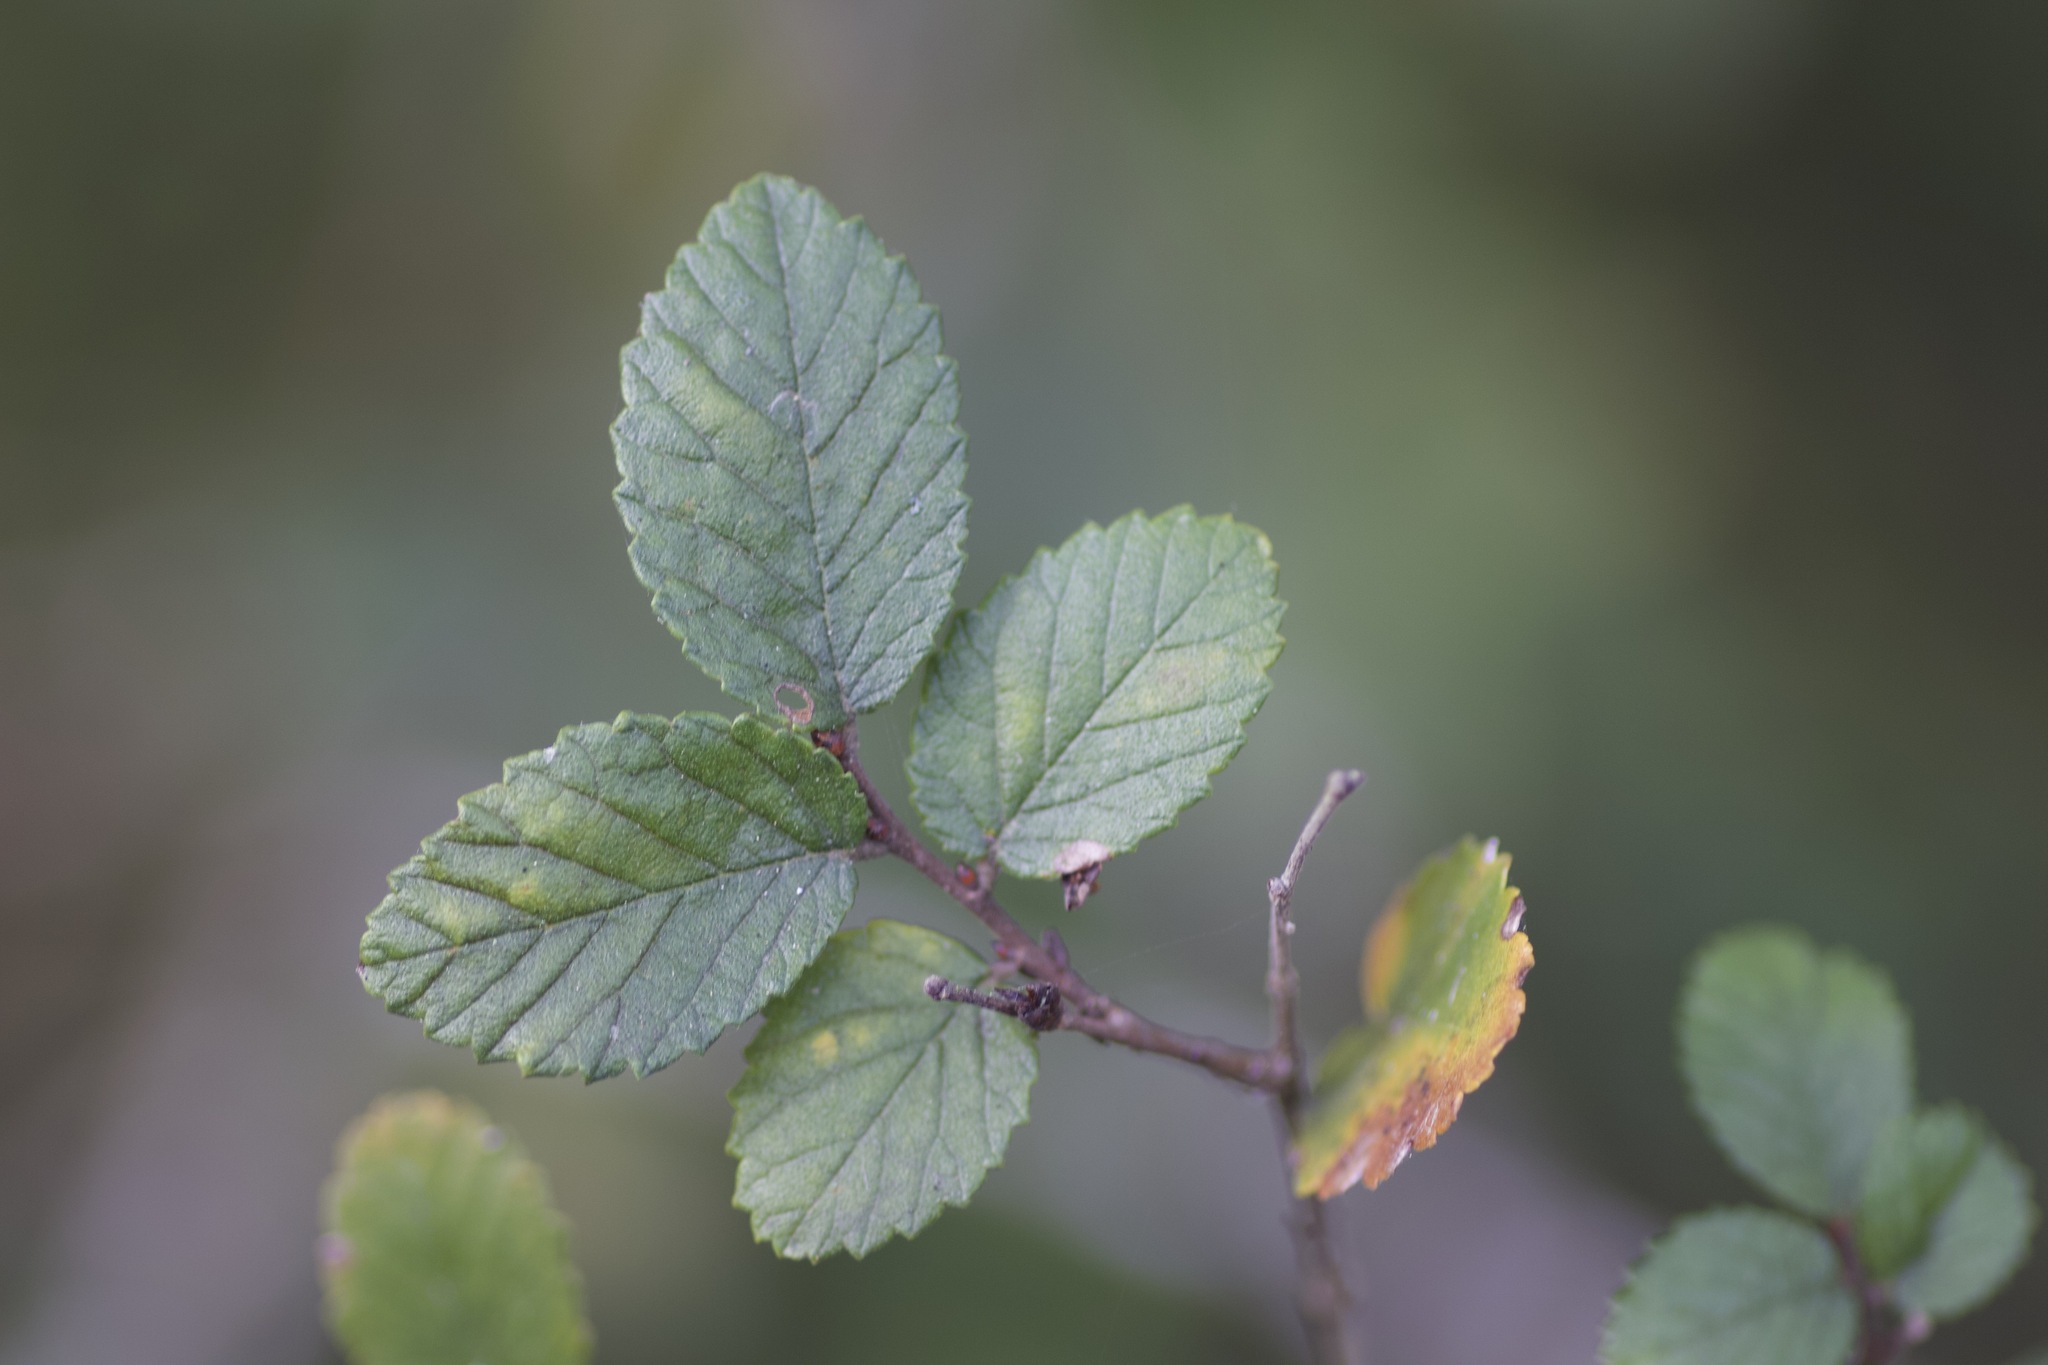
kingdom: Plantae
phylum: Tracheophyta
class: Magnoliopsida
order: Rosales
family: Ulmaceae
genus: Ulmus
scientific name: Ulmus crassifolia
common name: Basket elm
